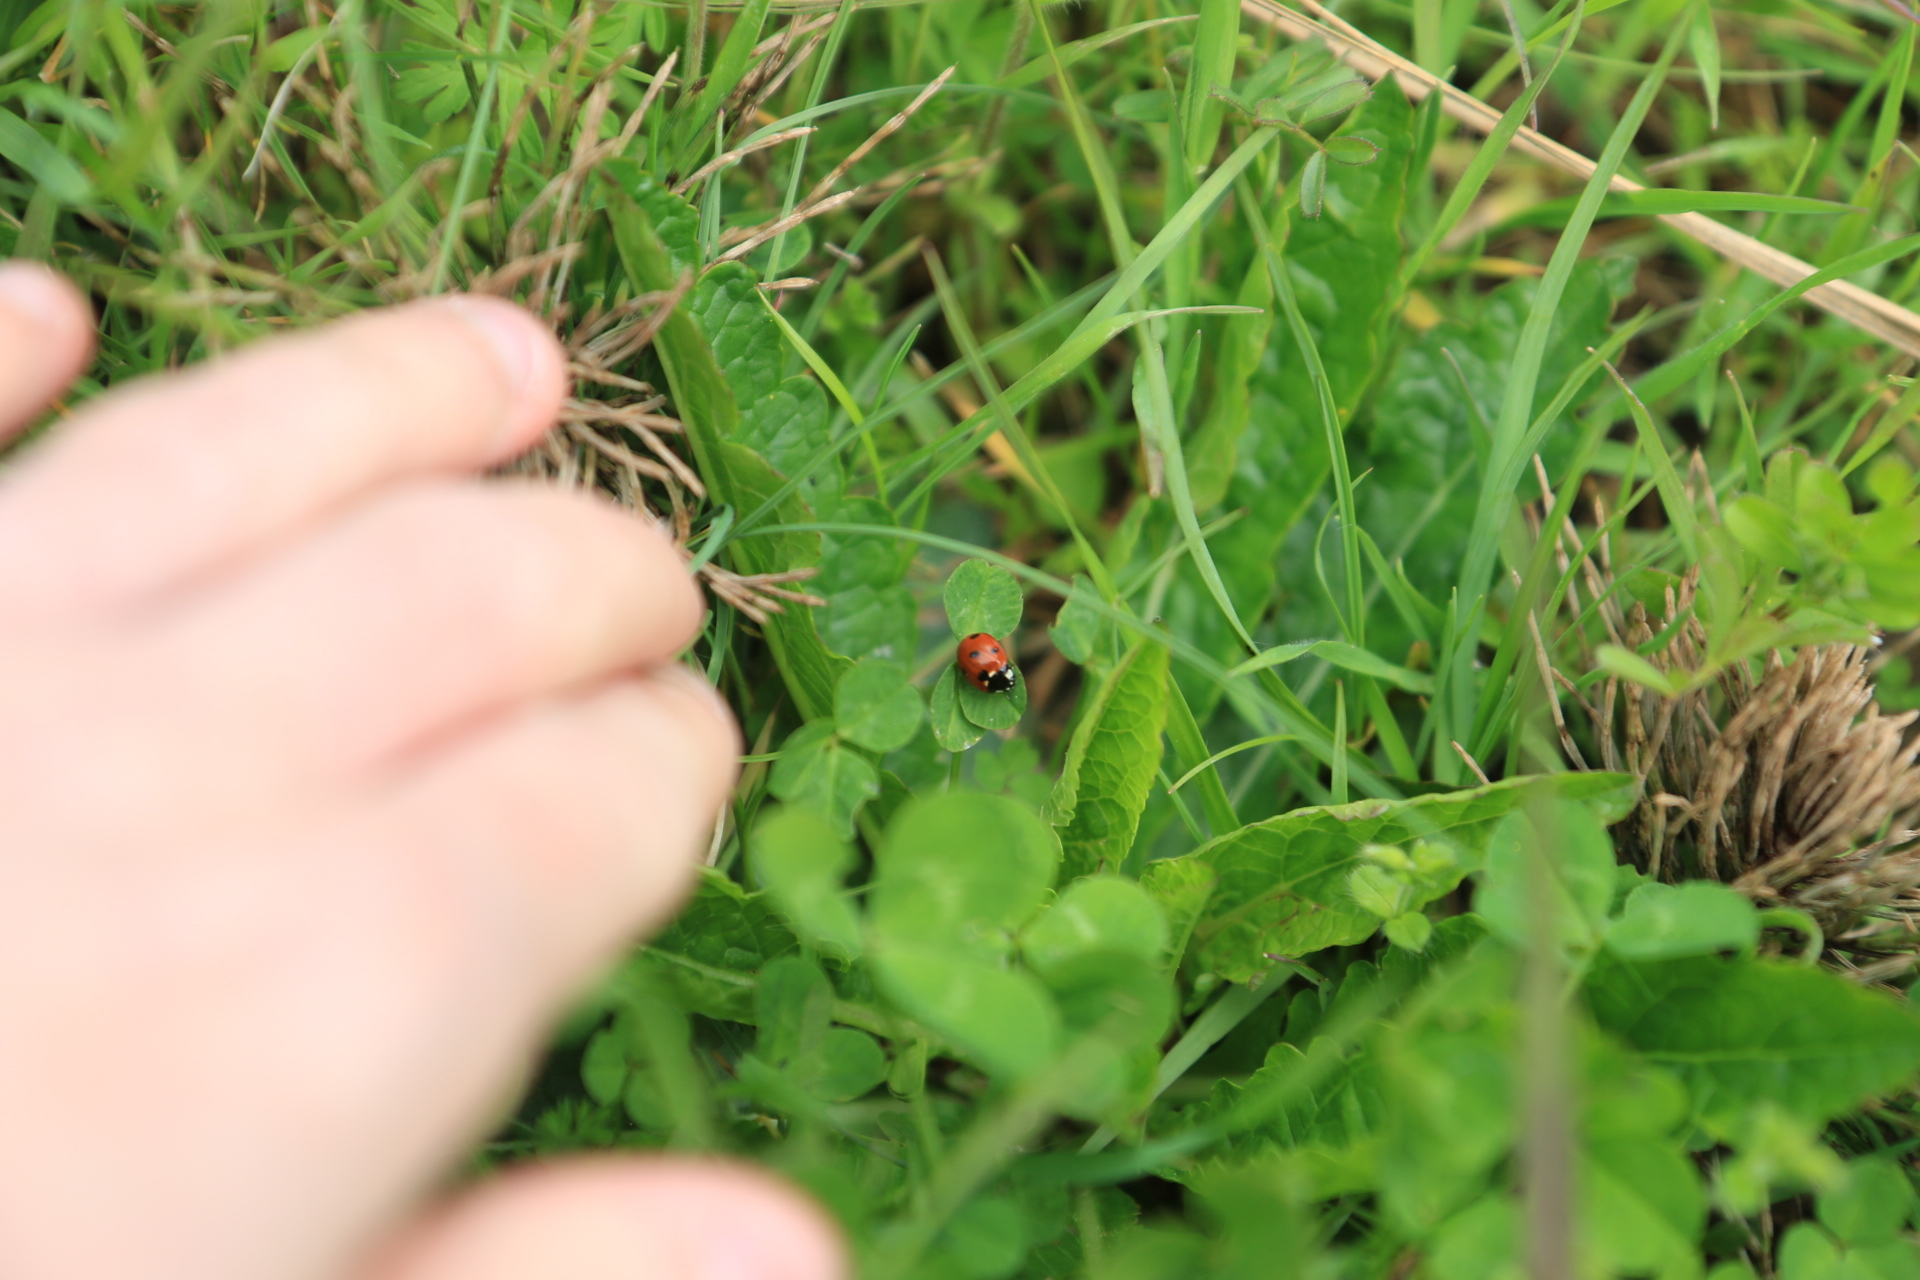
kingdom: Animalia
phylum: Arthropoda
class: Insecta
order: Coleoptera
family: Coccinellidae
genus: Coccinella
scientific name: Coccinella septempunctata
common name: Sevenspotted lady beetle
